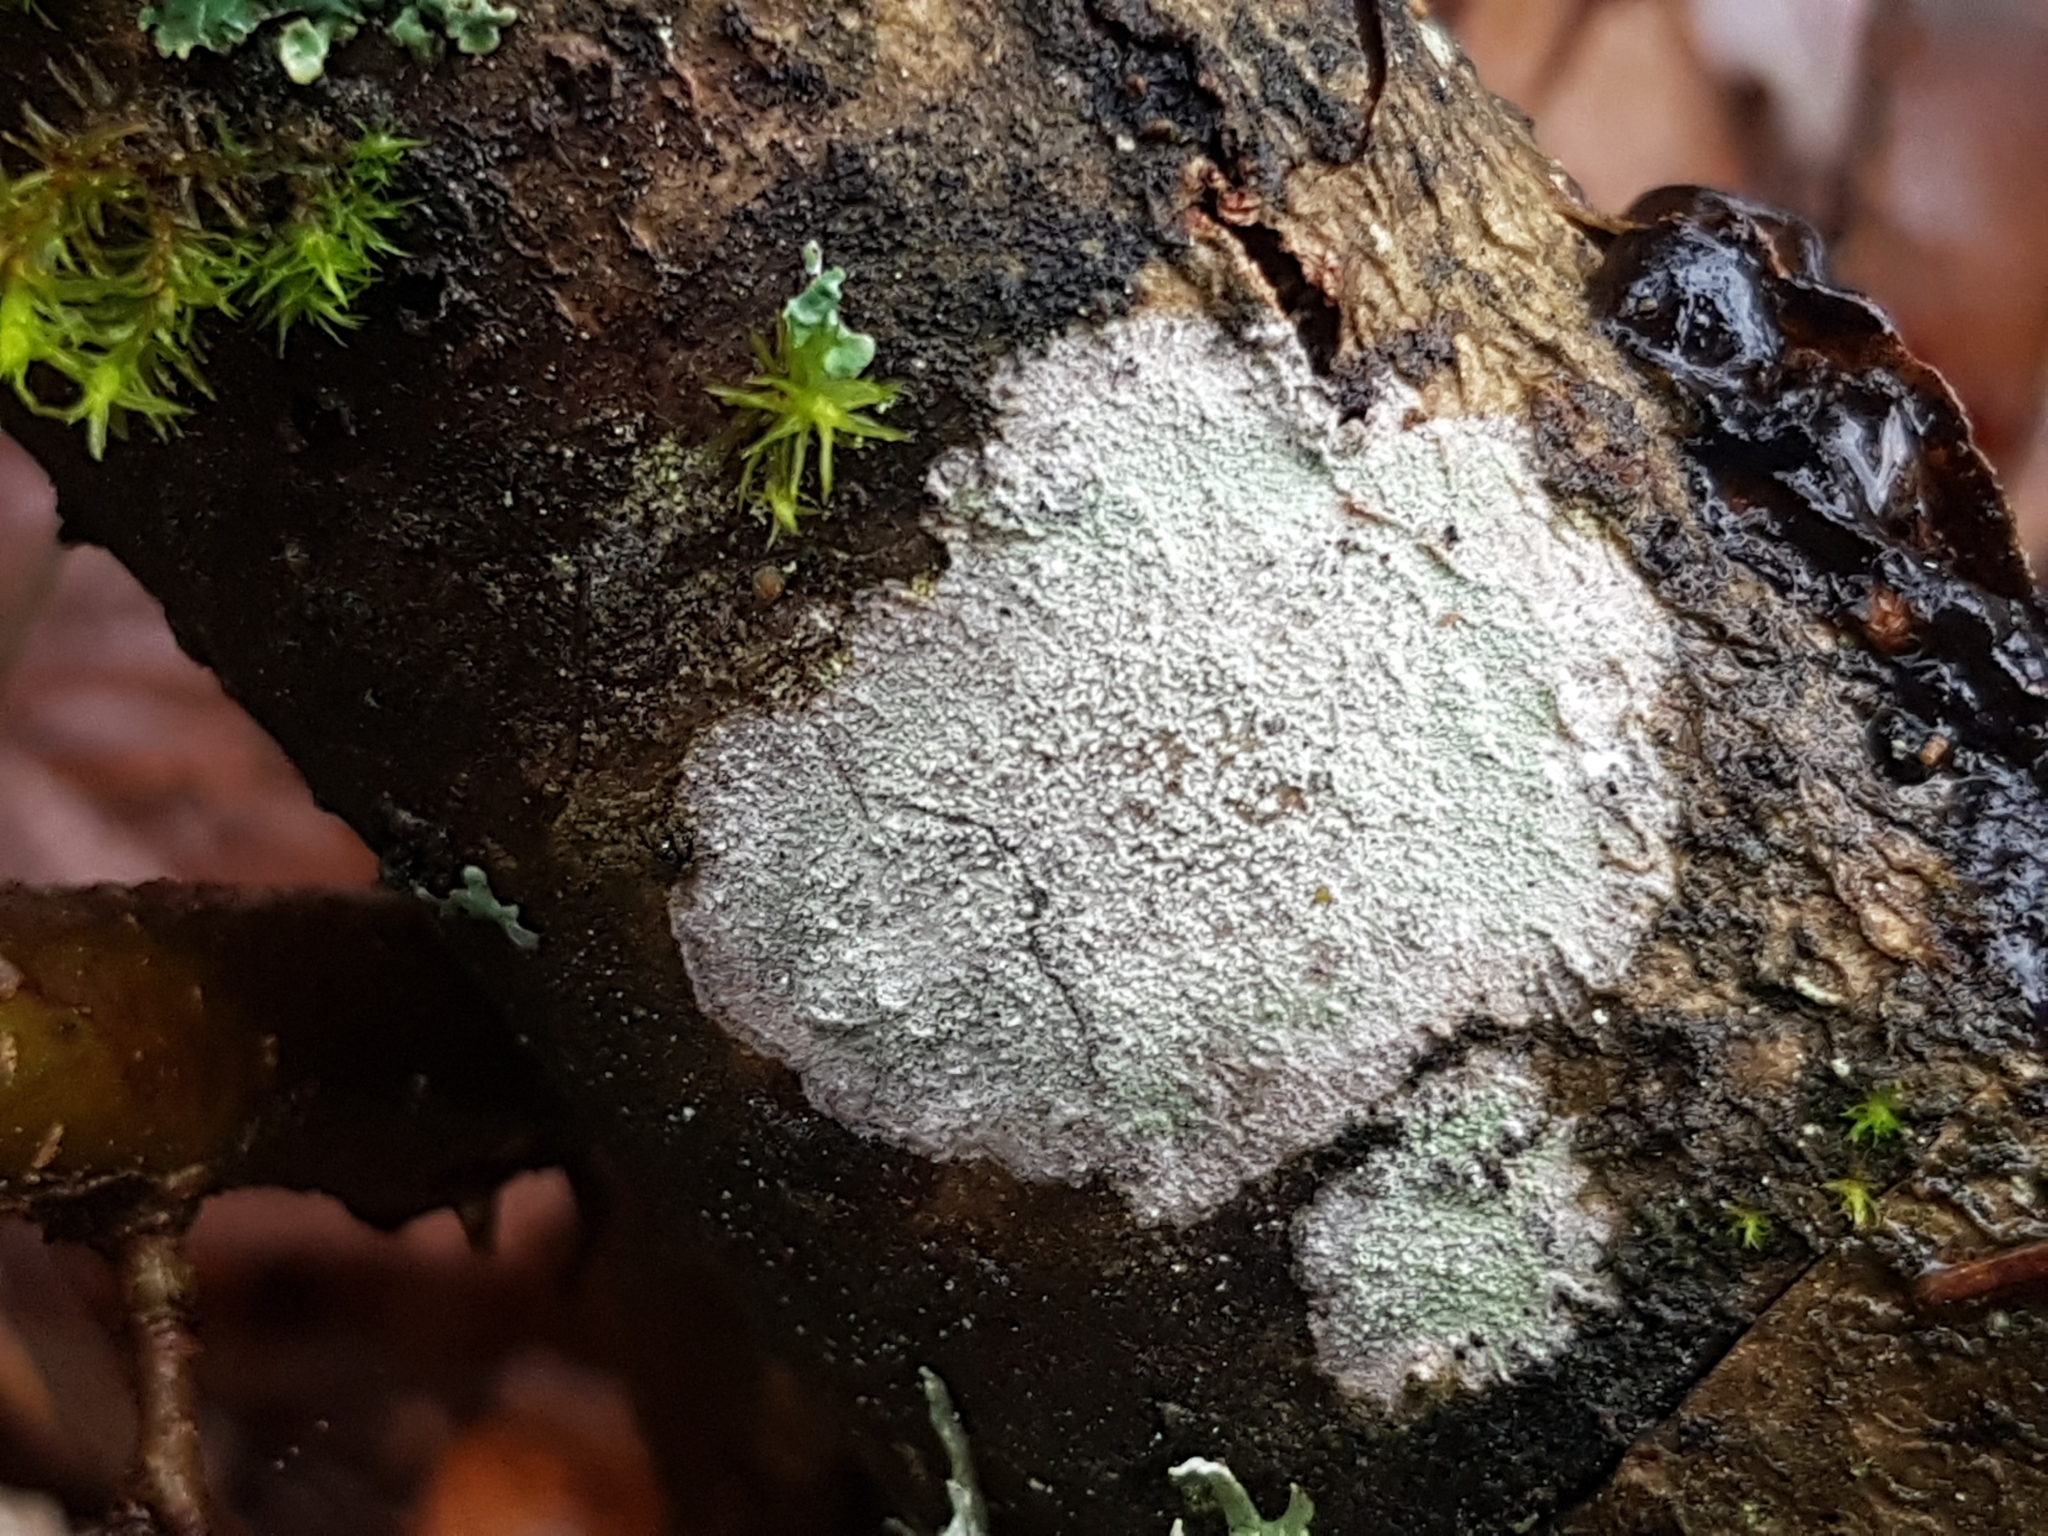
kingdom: Fungi
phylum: Ascomycota
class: Lecanoromycetes
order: Ostropales
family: Phlyctidaceae
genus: Phlyctis
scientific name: Phlyctis argena
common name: Whitewash lichen
